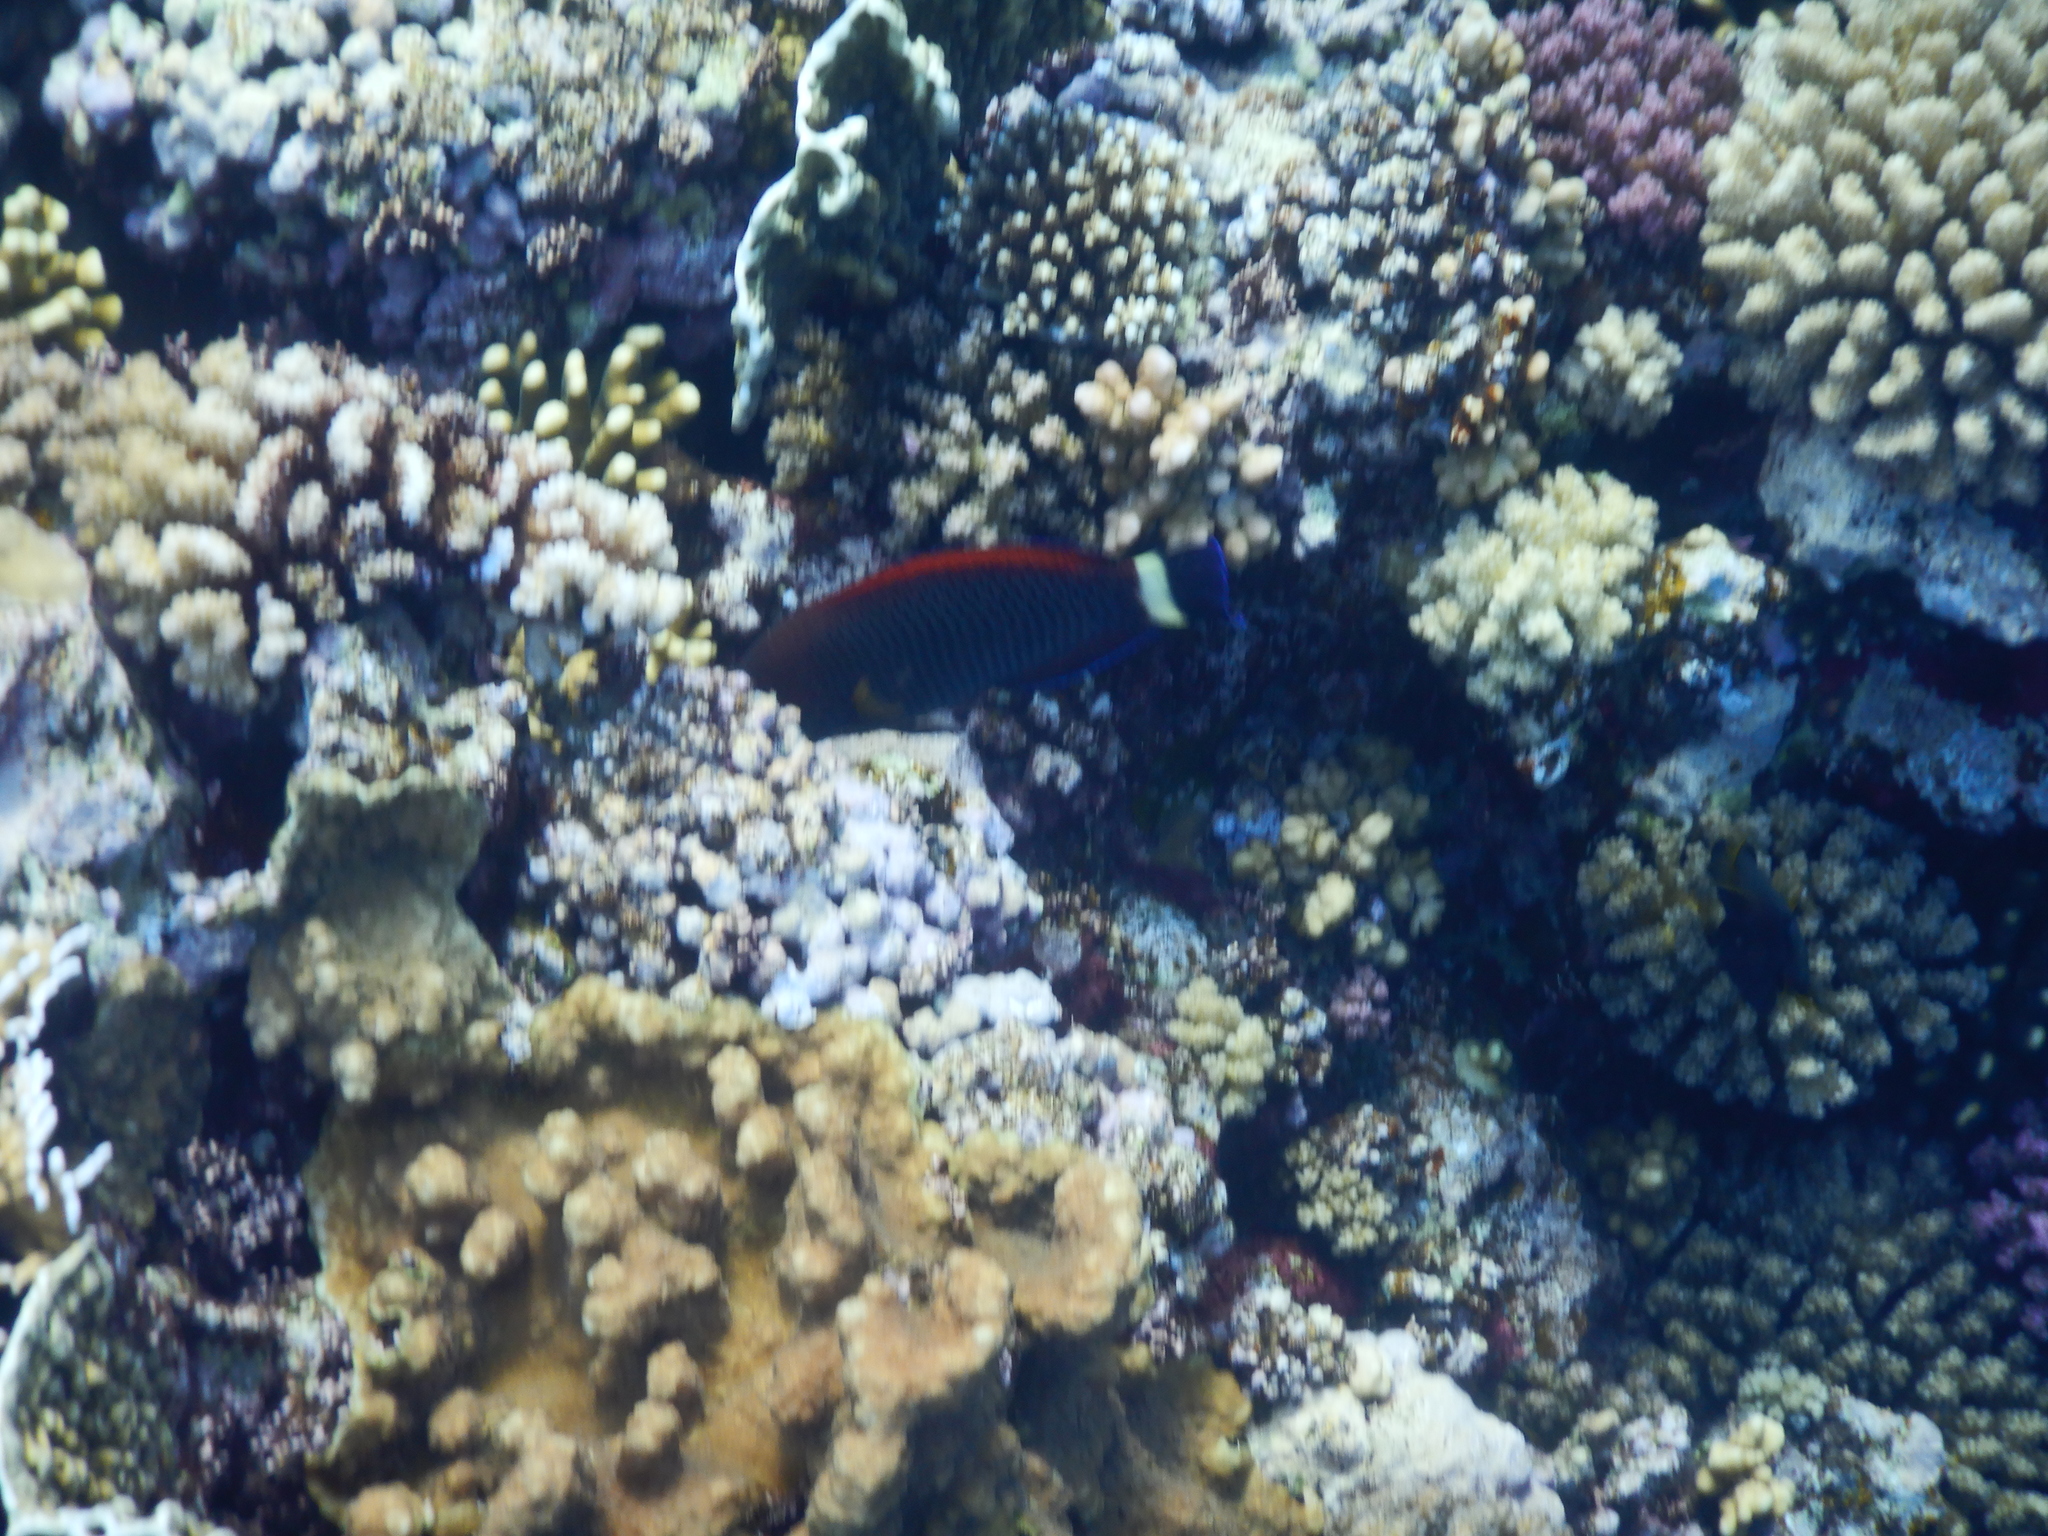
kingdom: Animalia
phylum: Chordata
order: Perciformes
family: Labridae
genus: Pseudodax
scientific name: Pseudodax moluccanus
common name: Chiseltooth wrasse
